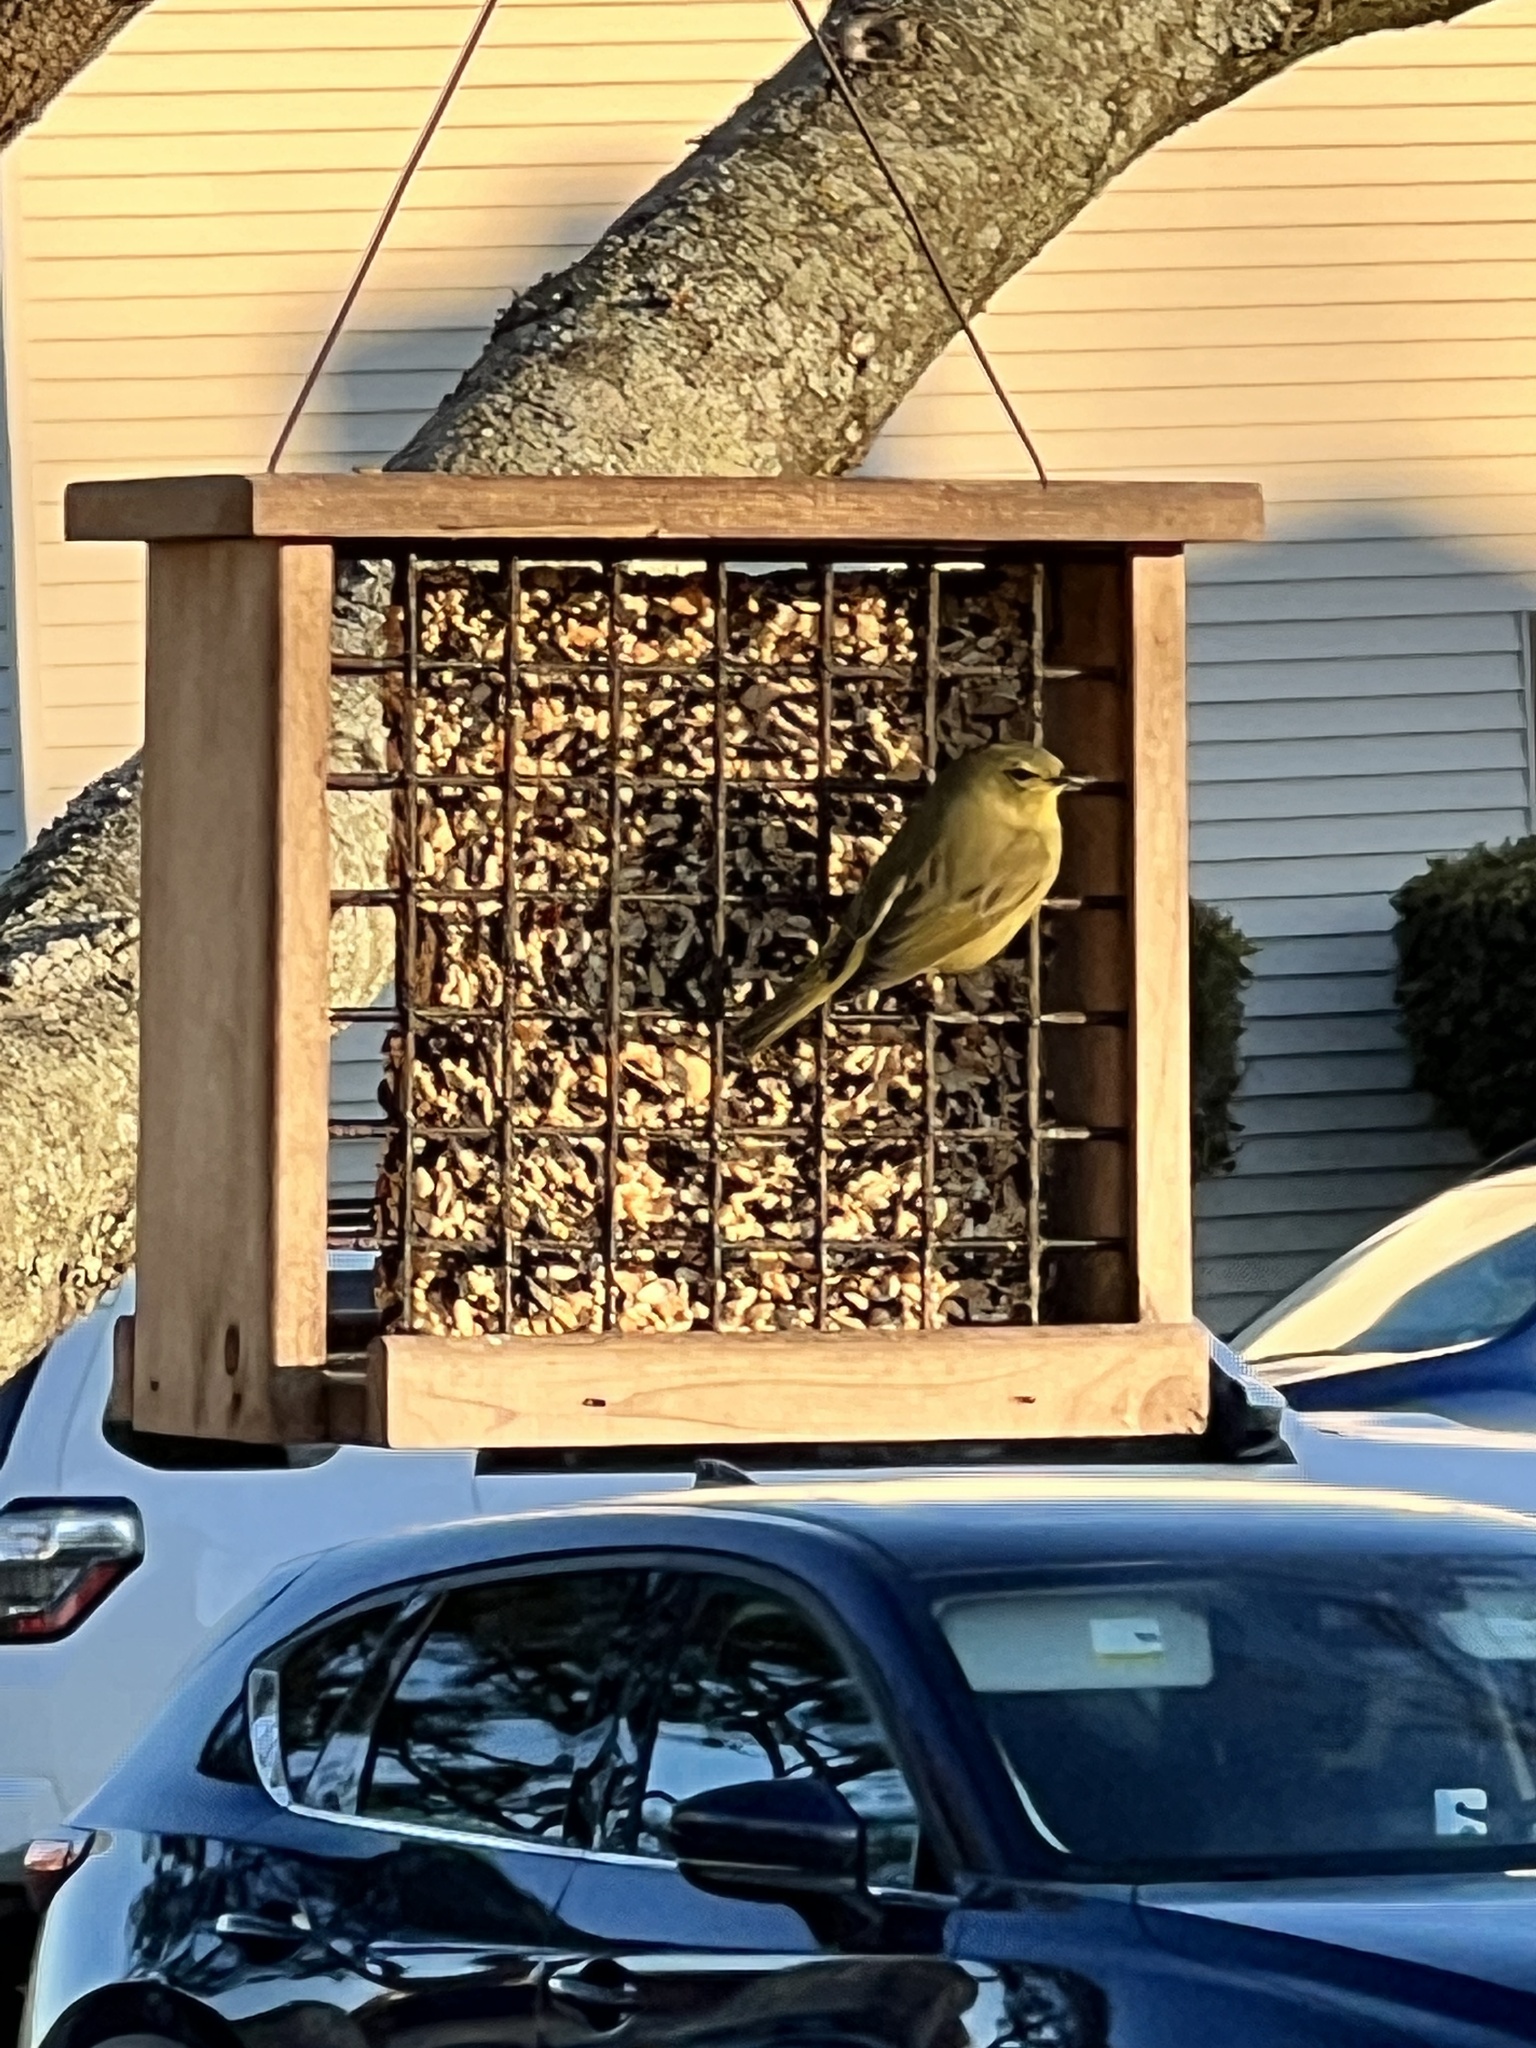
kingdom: Animalia
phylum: Chordata
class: Aves
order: Passeriformes
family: Parulidae
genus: Leiothlypis
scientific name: Leiothlypis celata
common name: Orange-crowned warbler
